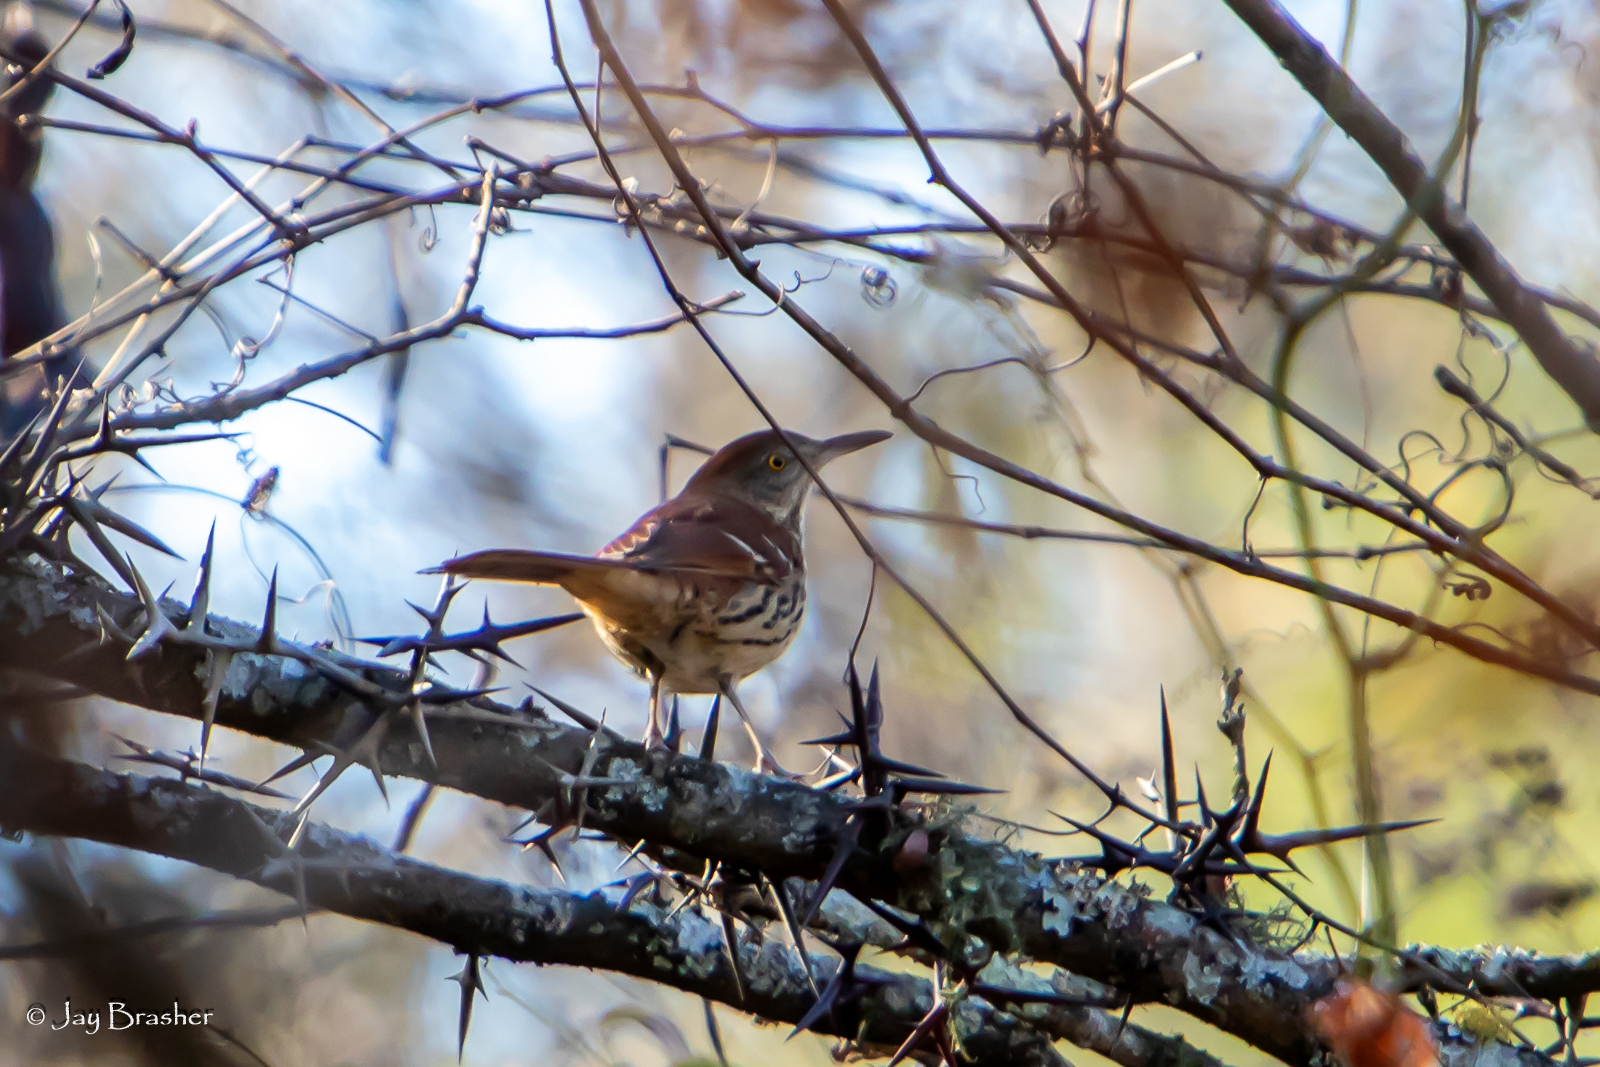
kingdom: Animalia
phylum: Chordata
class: Aves
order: Passeriformes
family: Mimidae
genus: Toxostoma
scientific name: Toxostoma rufum
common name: Brown thrasher
